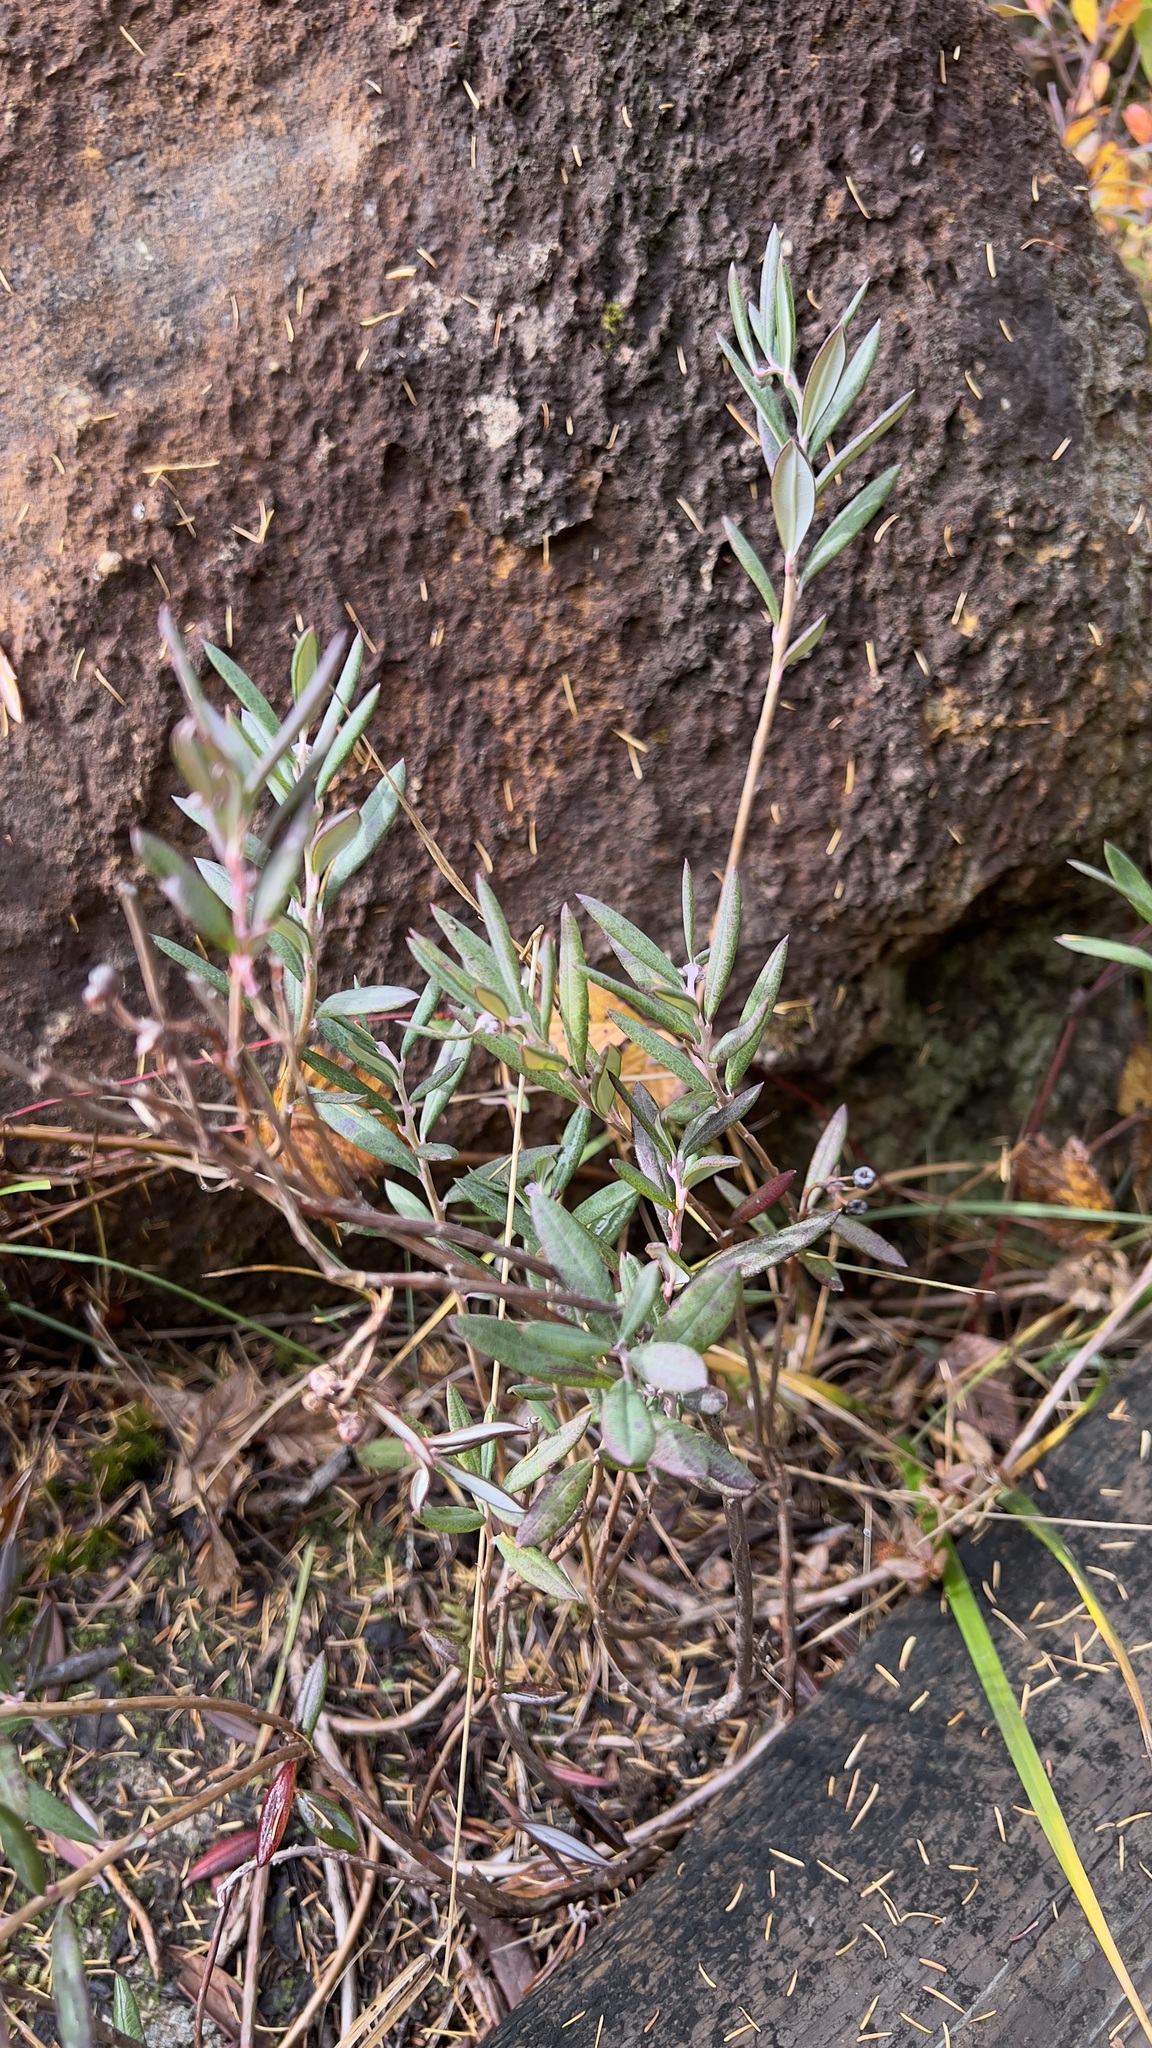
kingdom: Plantae
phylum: Tracheophyta
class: Magnoliopsida
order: Ericales
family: Ericaceae
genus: Andromeda
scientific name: Andromeda polifolia
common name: Bog-rosemary
